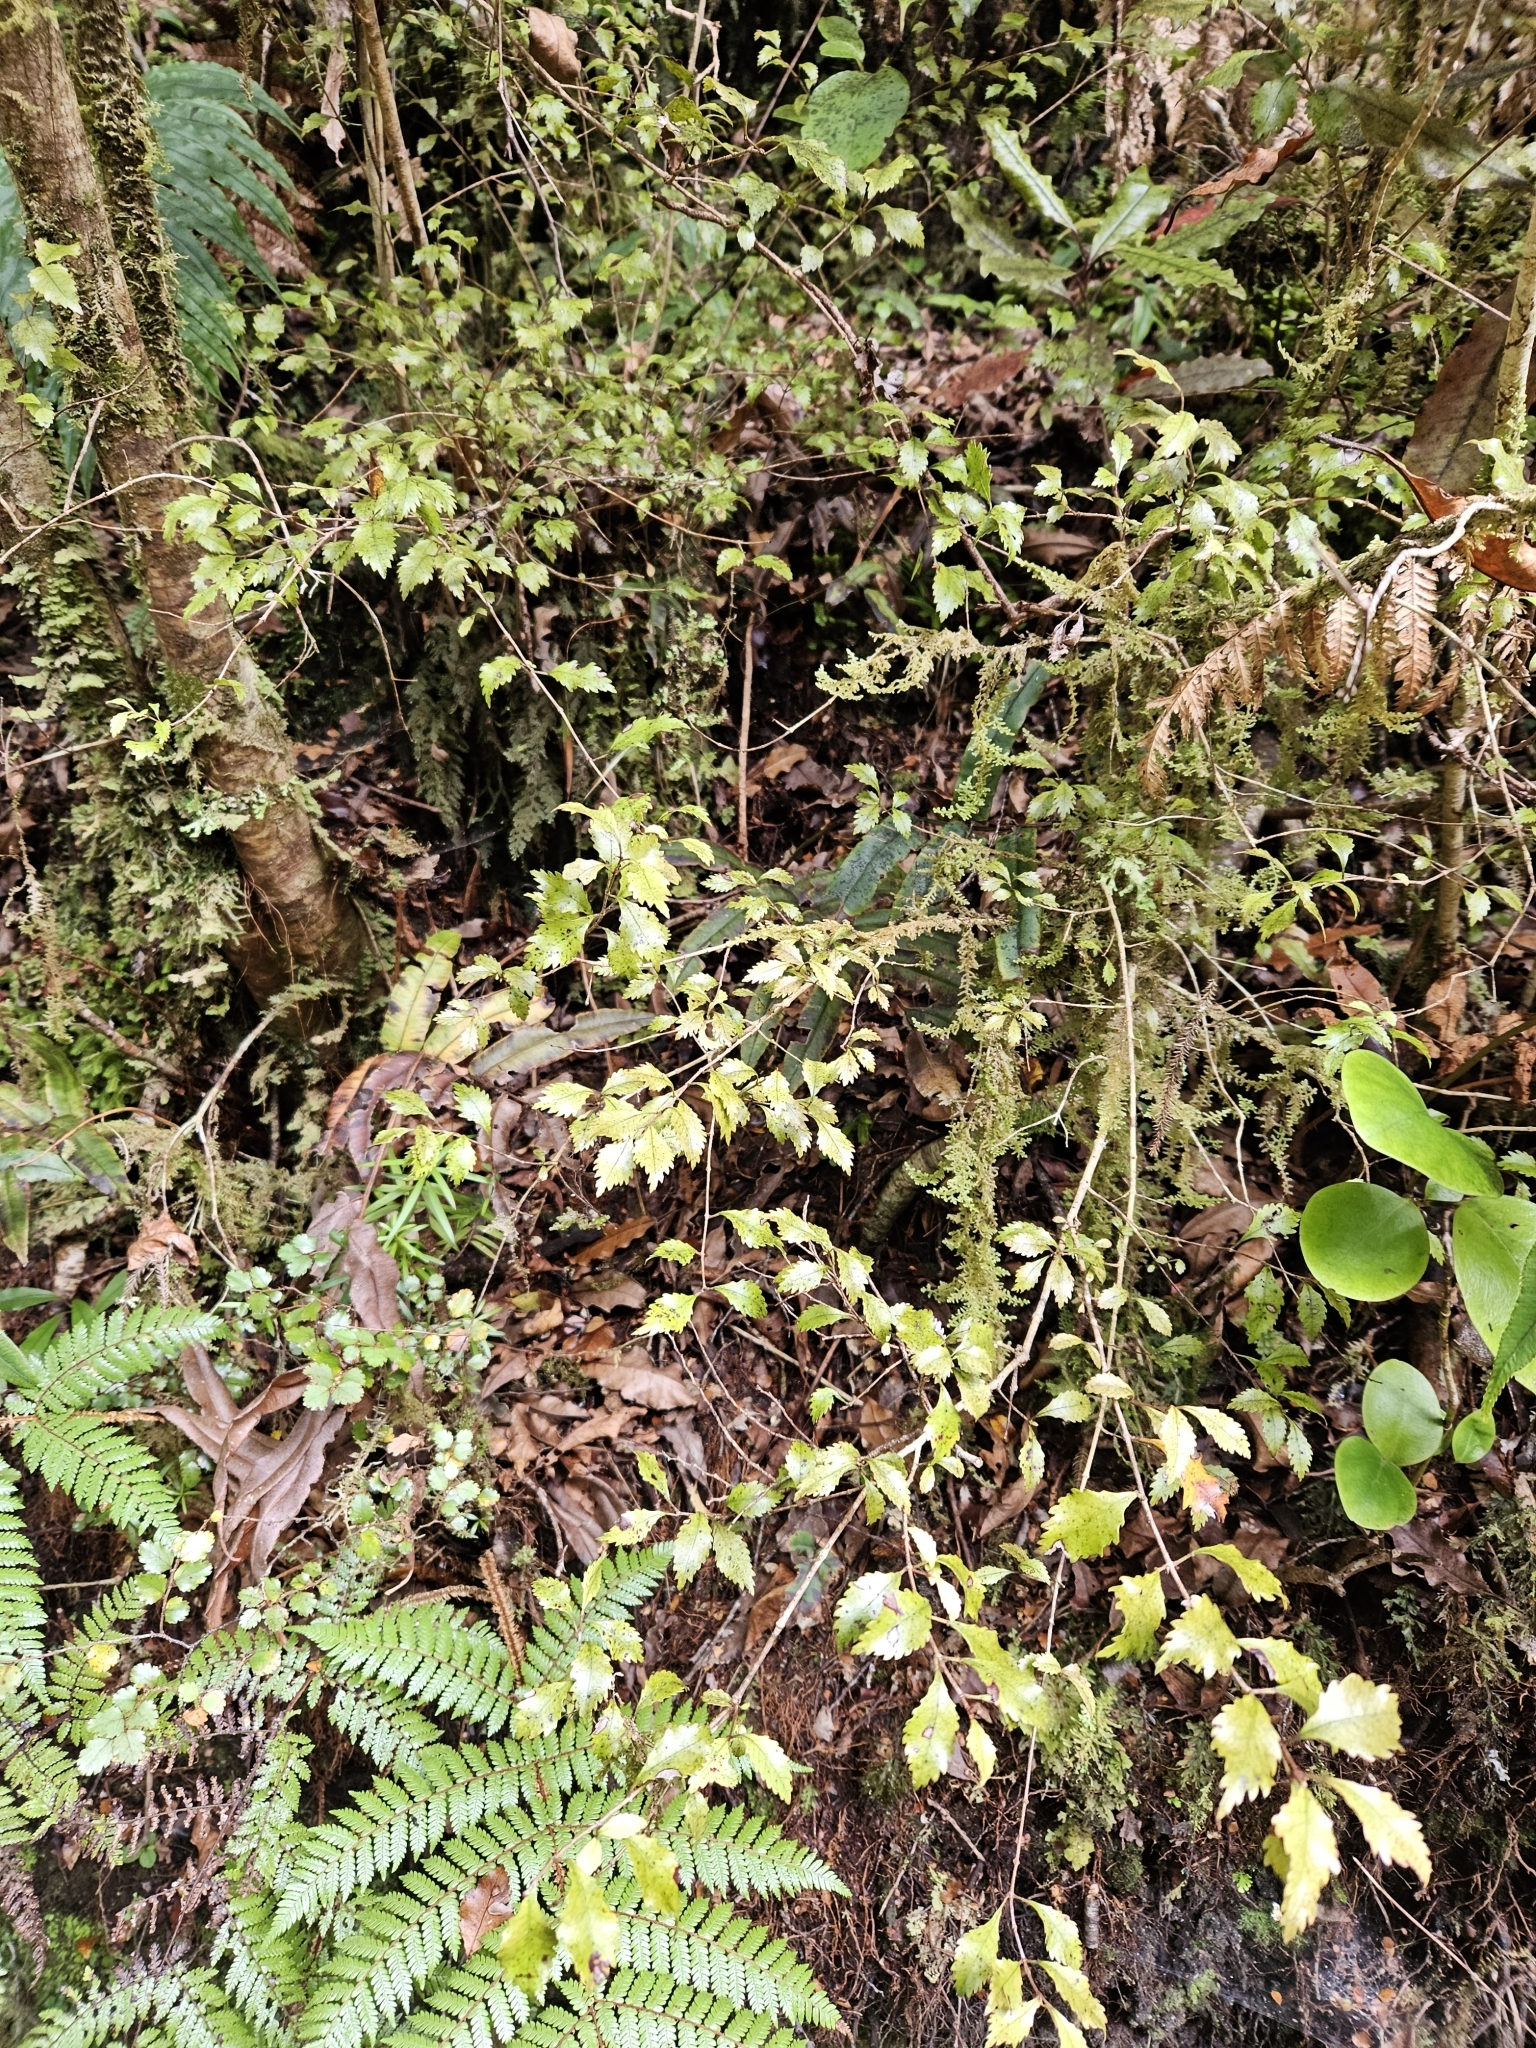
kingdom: Plantae
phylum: Tracheophyta
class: Magnoliopsida
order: Oxalidales
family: Cunoniaceae
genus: Pterophylla
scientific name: Pterophylla racemosa
